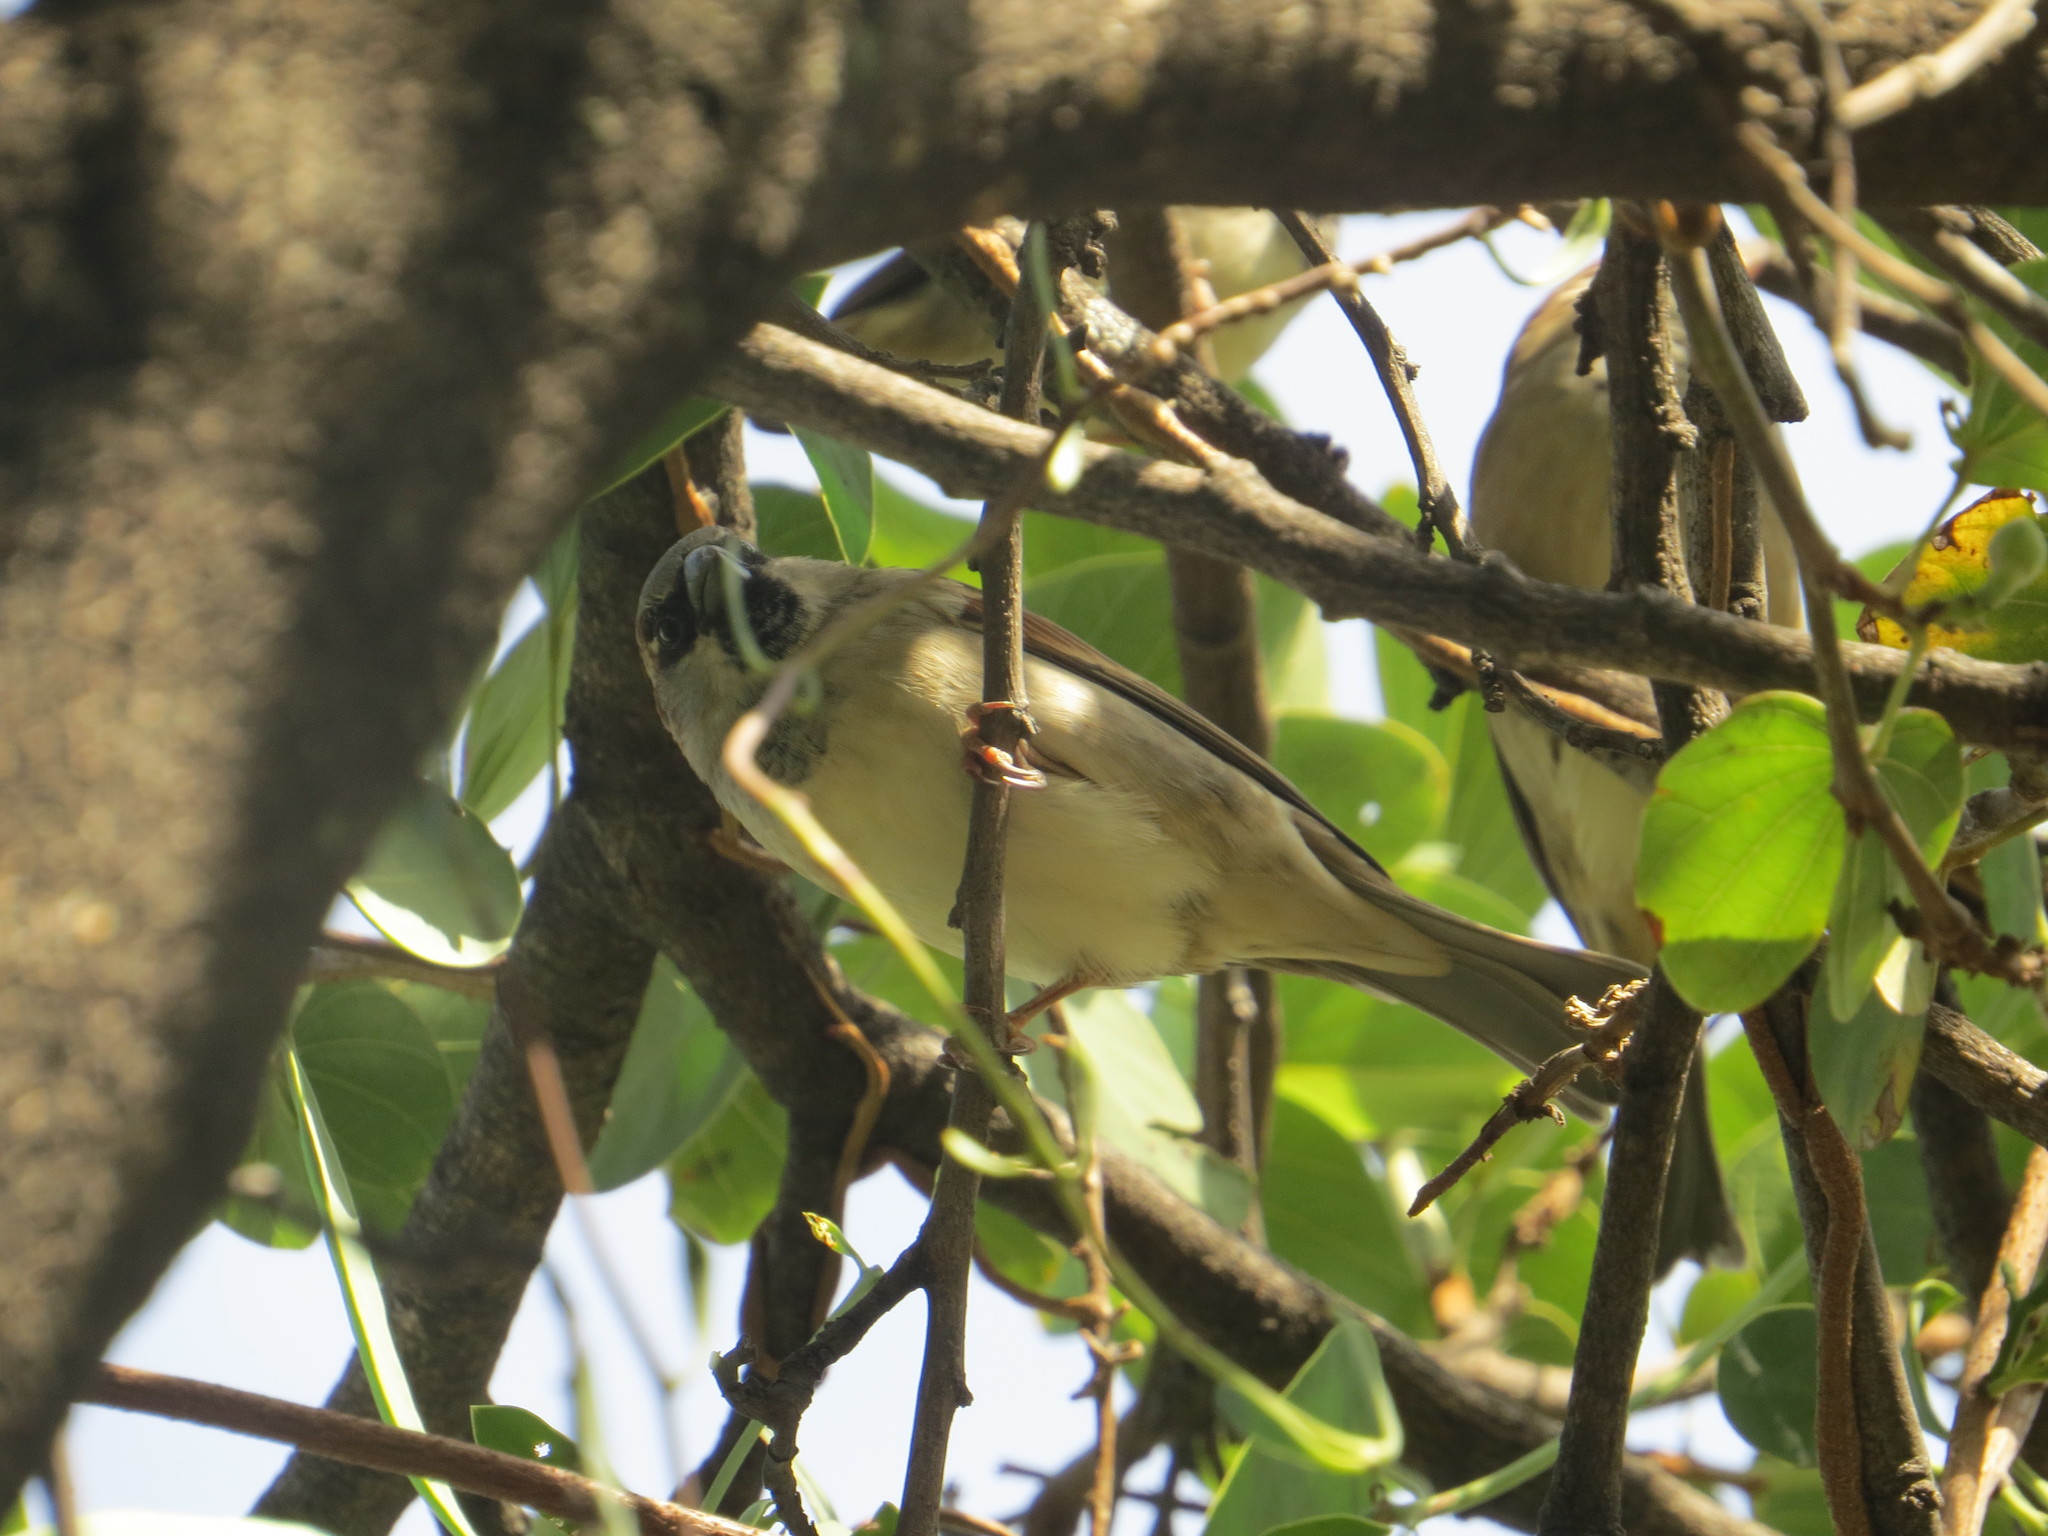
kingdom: Animalia
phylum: Chordata
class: Aves
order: Passeriformes
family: Passeridae
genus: Passer
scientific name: Passer domesticus
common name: House sparrow
